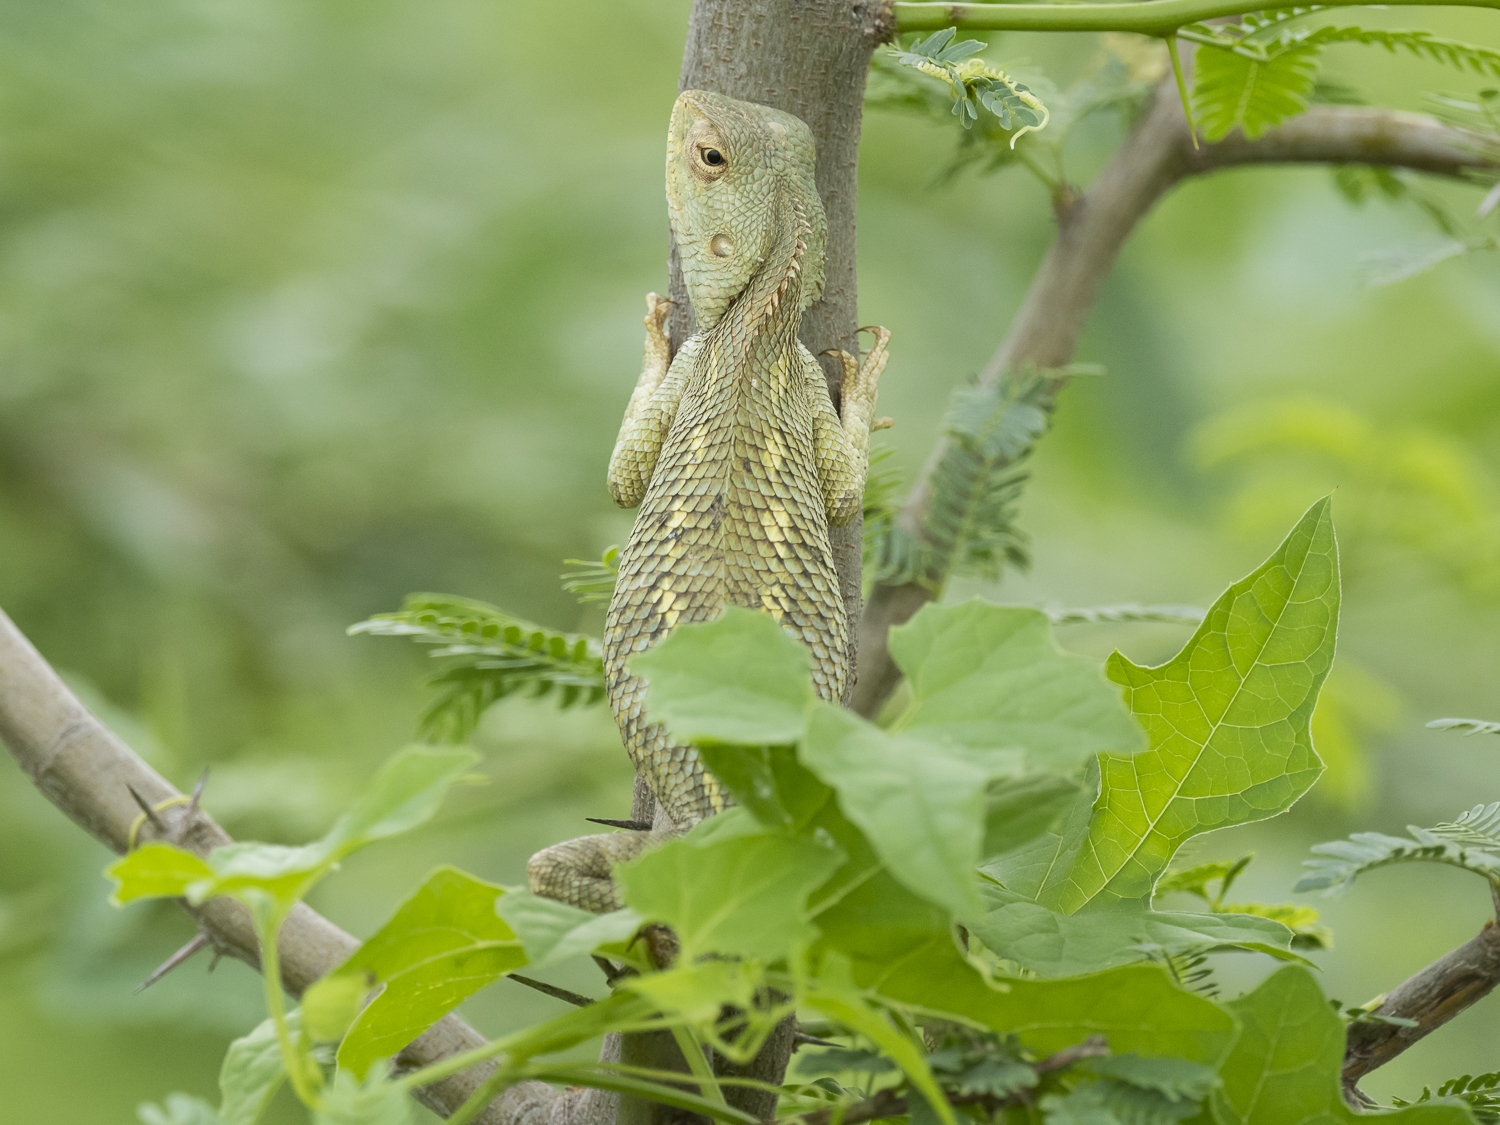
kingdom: Animalia
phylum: Chordata
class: Squamata
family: Agamidae
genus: Calotes
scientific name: Calotes versicolor
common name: Oriental garden lizard
